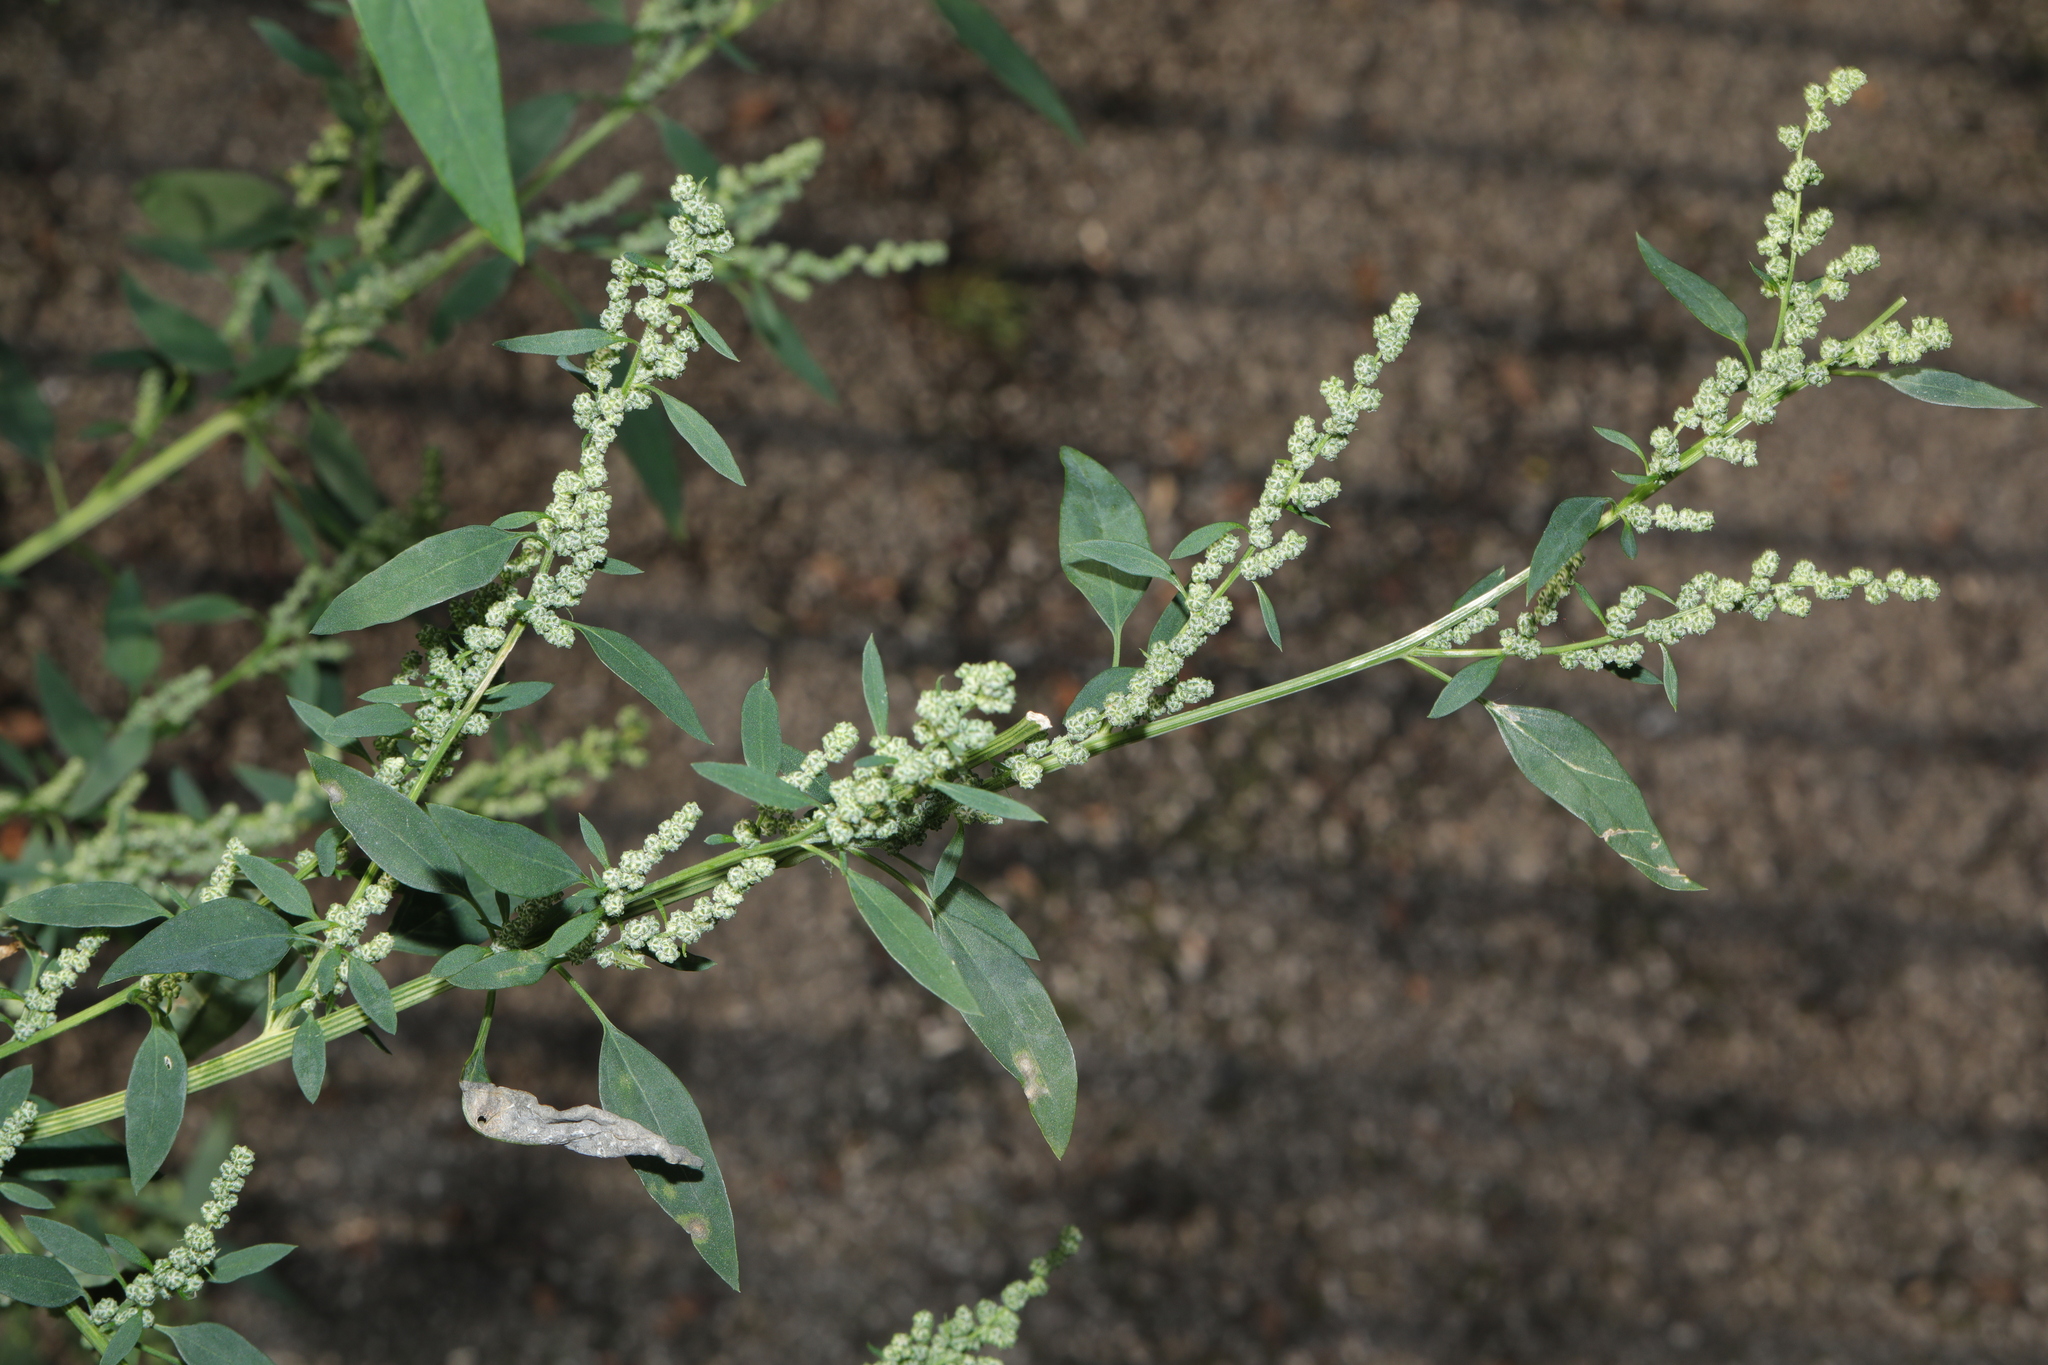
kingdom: Plantae
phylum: Tracheophyta
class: Magnoliopsida
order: Caryophyllales
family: Amaranthaceae
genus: Chenopodium
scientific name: Chenopodium album
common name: Fat-hen
